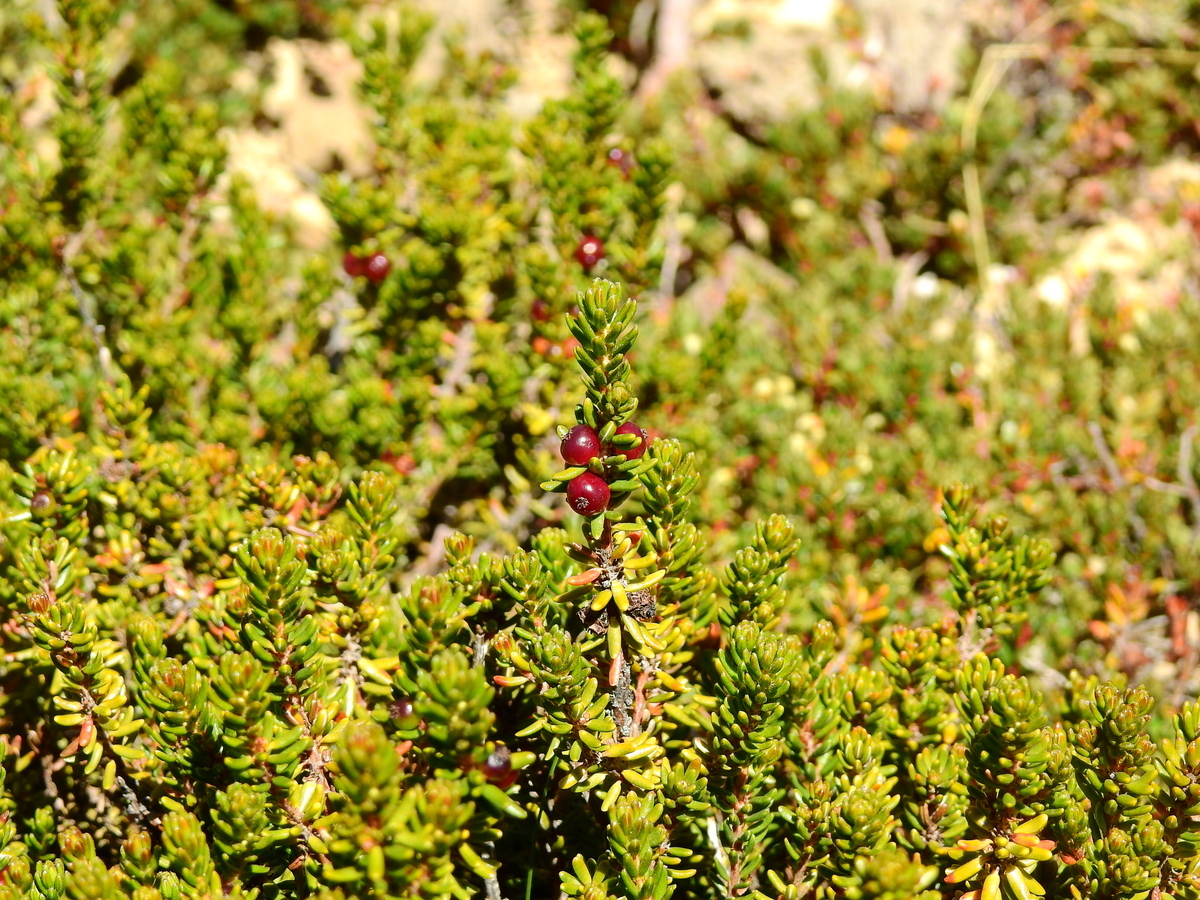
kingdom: Plantae
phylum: Tracheophyta
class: Magnoliopsida
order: Ericales
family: Ericaceae
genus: Empetrum
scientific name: Empetrum rubrum
